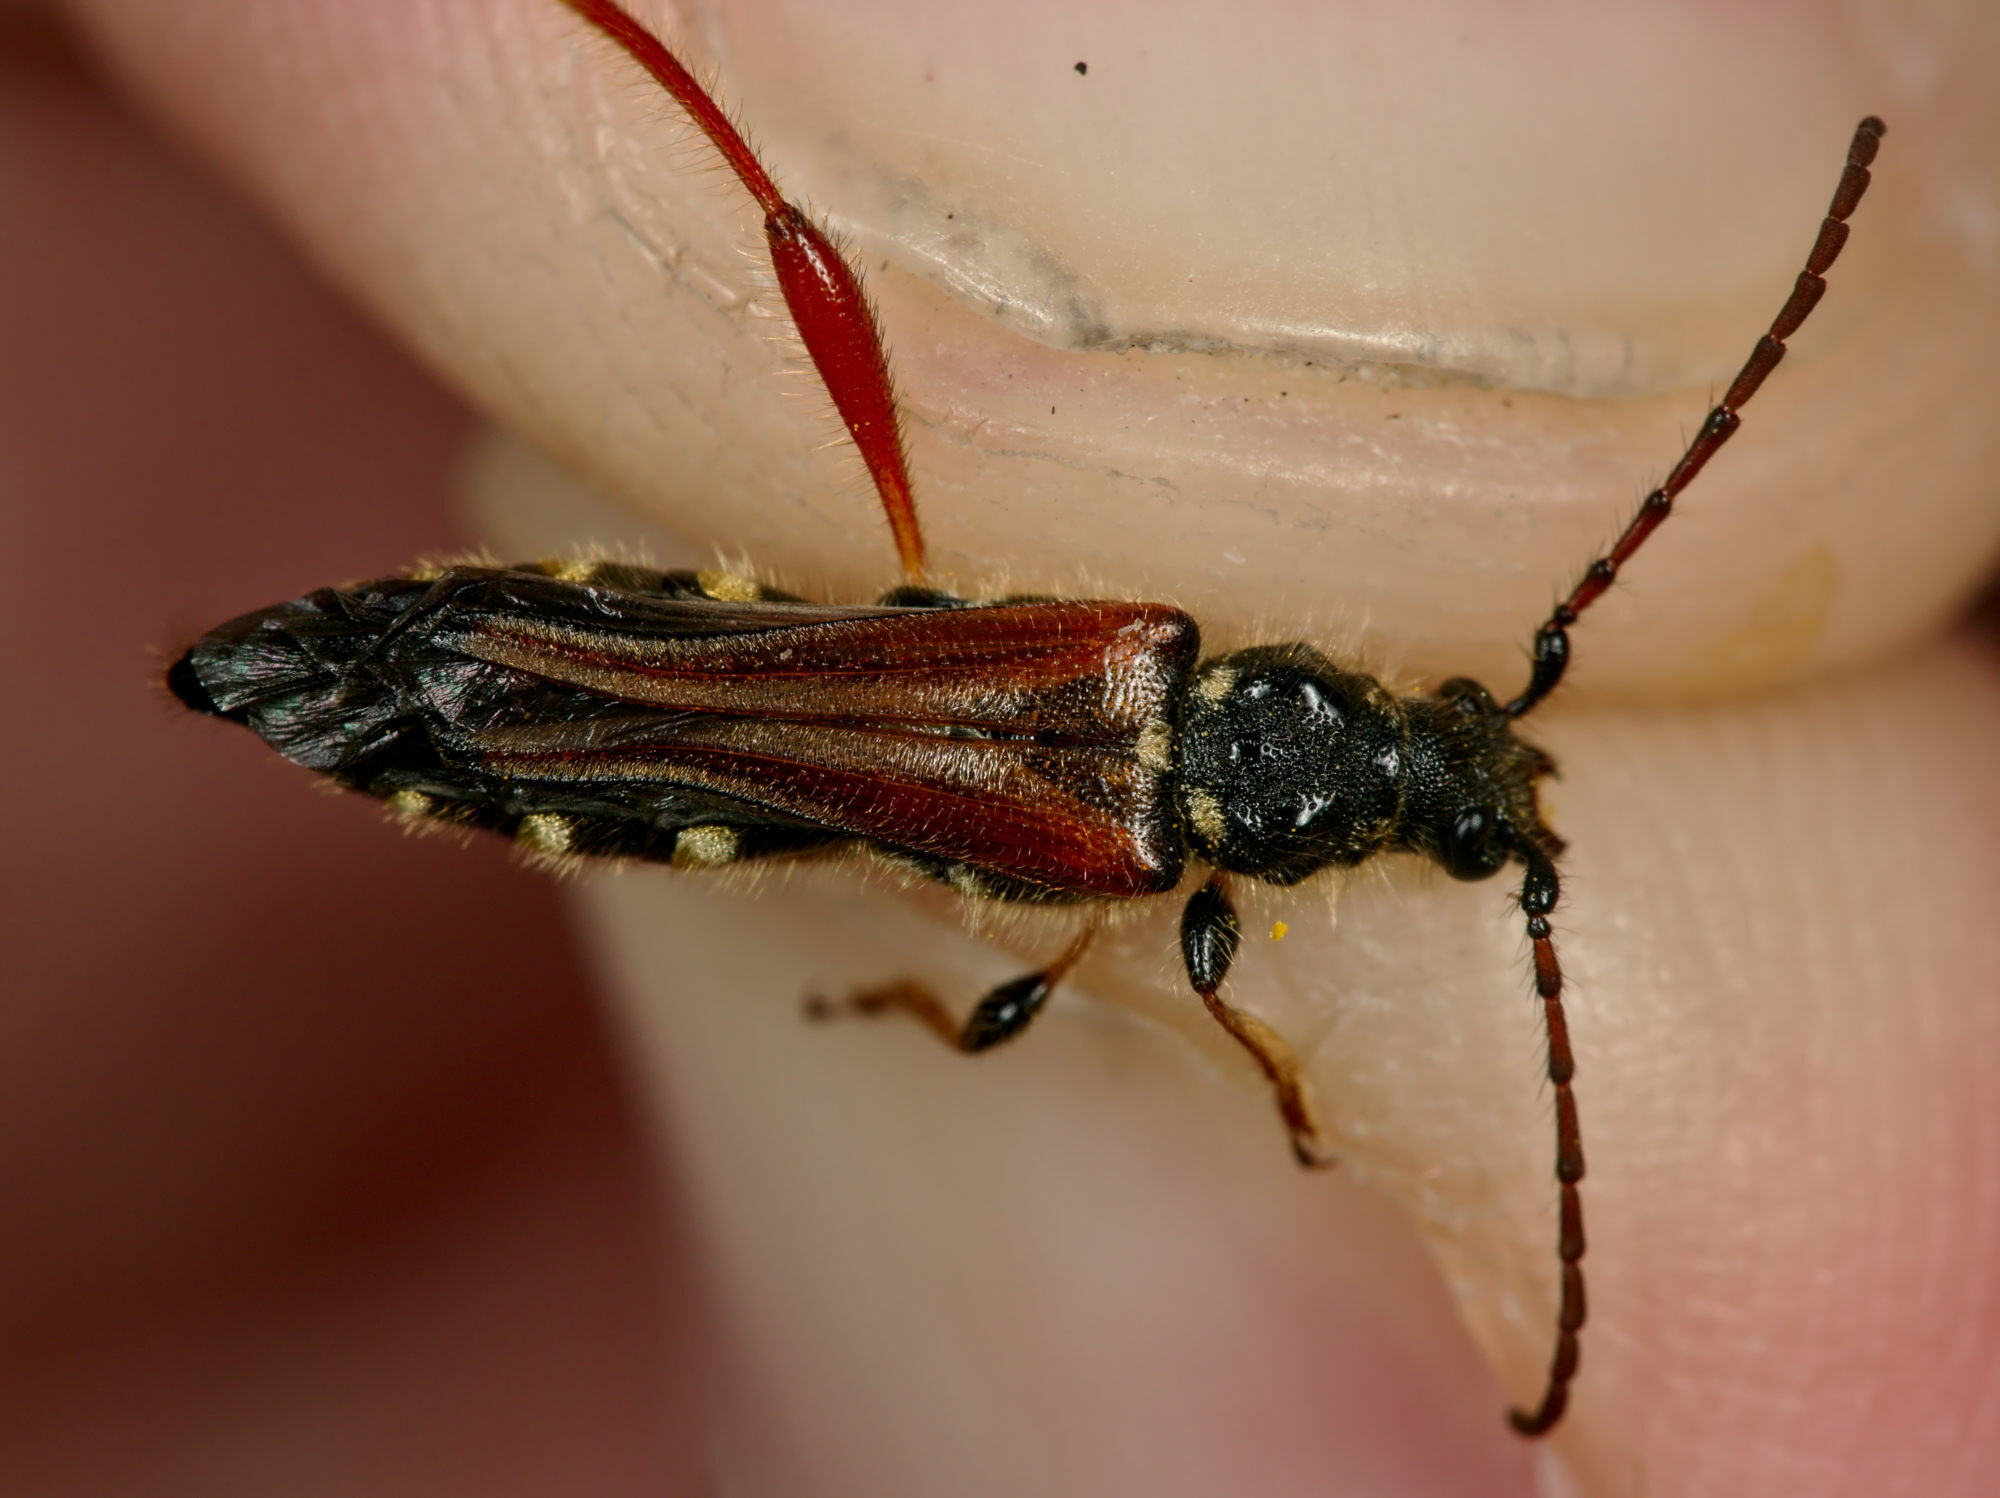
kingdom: Animalia
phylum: Arthropoda
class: Insecta
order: Coleoptera
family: Cerambycidae
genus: Stenopterus
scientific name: Stenopterus rufus
